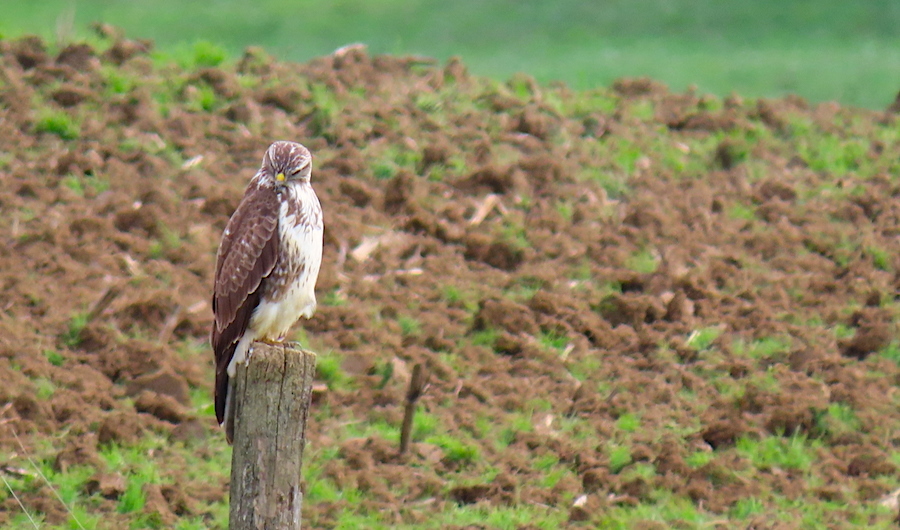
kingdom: Animalia
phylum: Chordata
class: Aves
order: Accipitriformes
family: Accipitridae
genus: Buteo
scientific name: Buteo buteo
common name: Common buzzard
